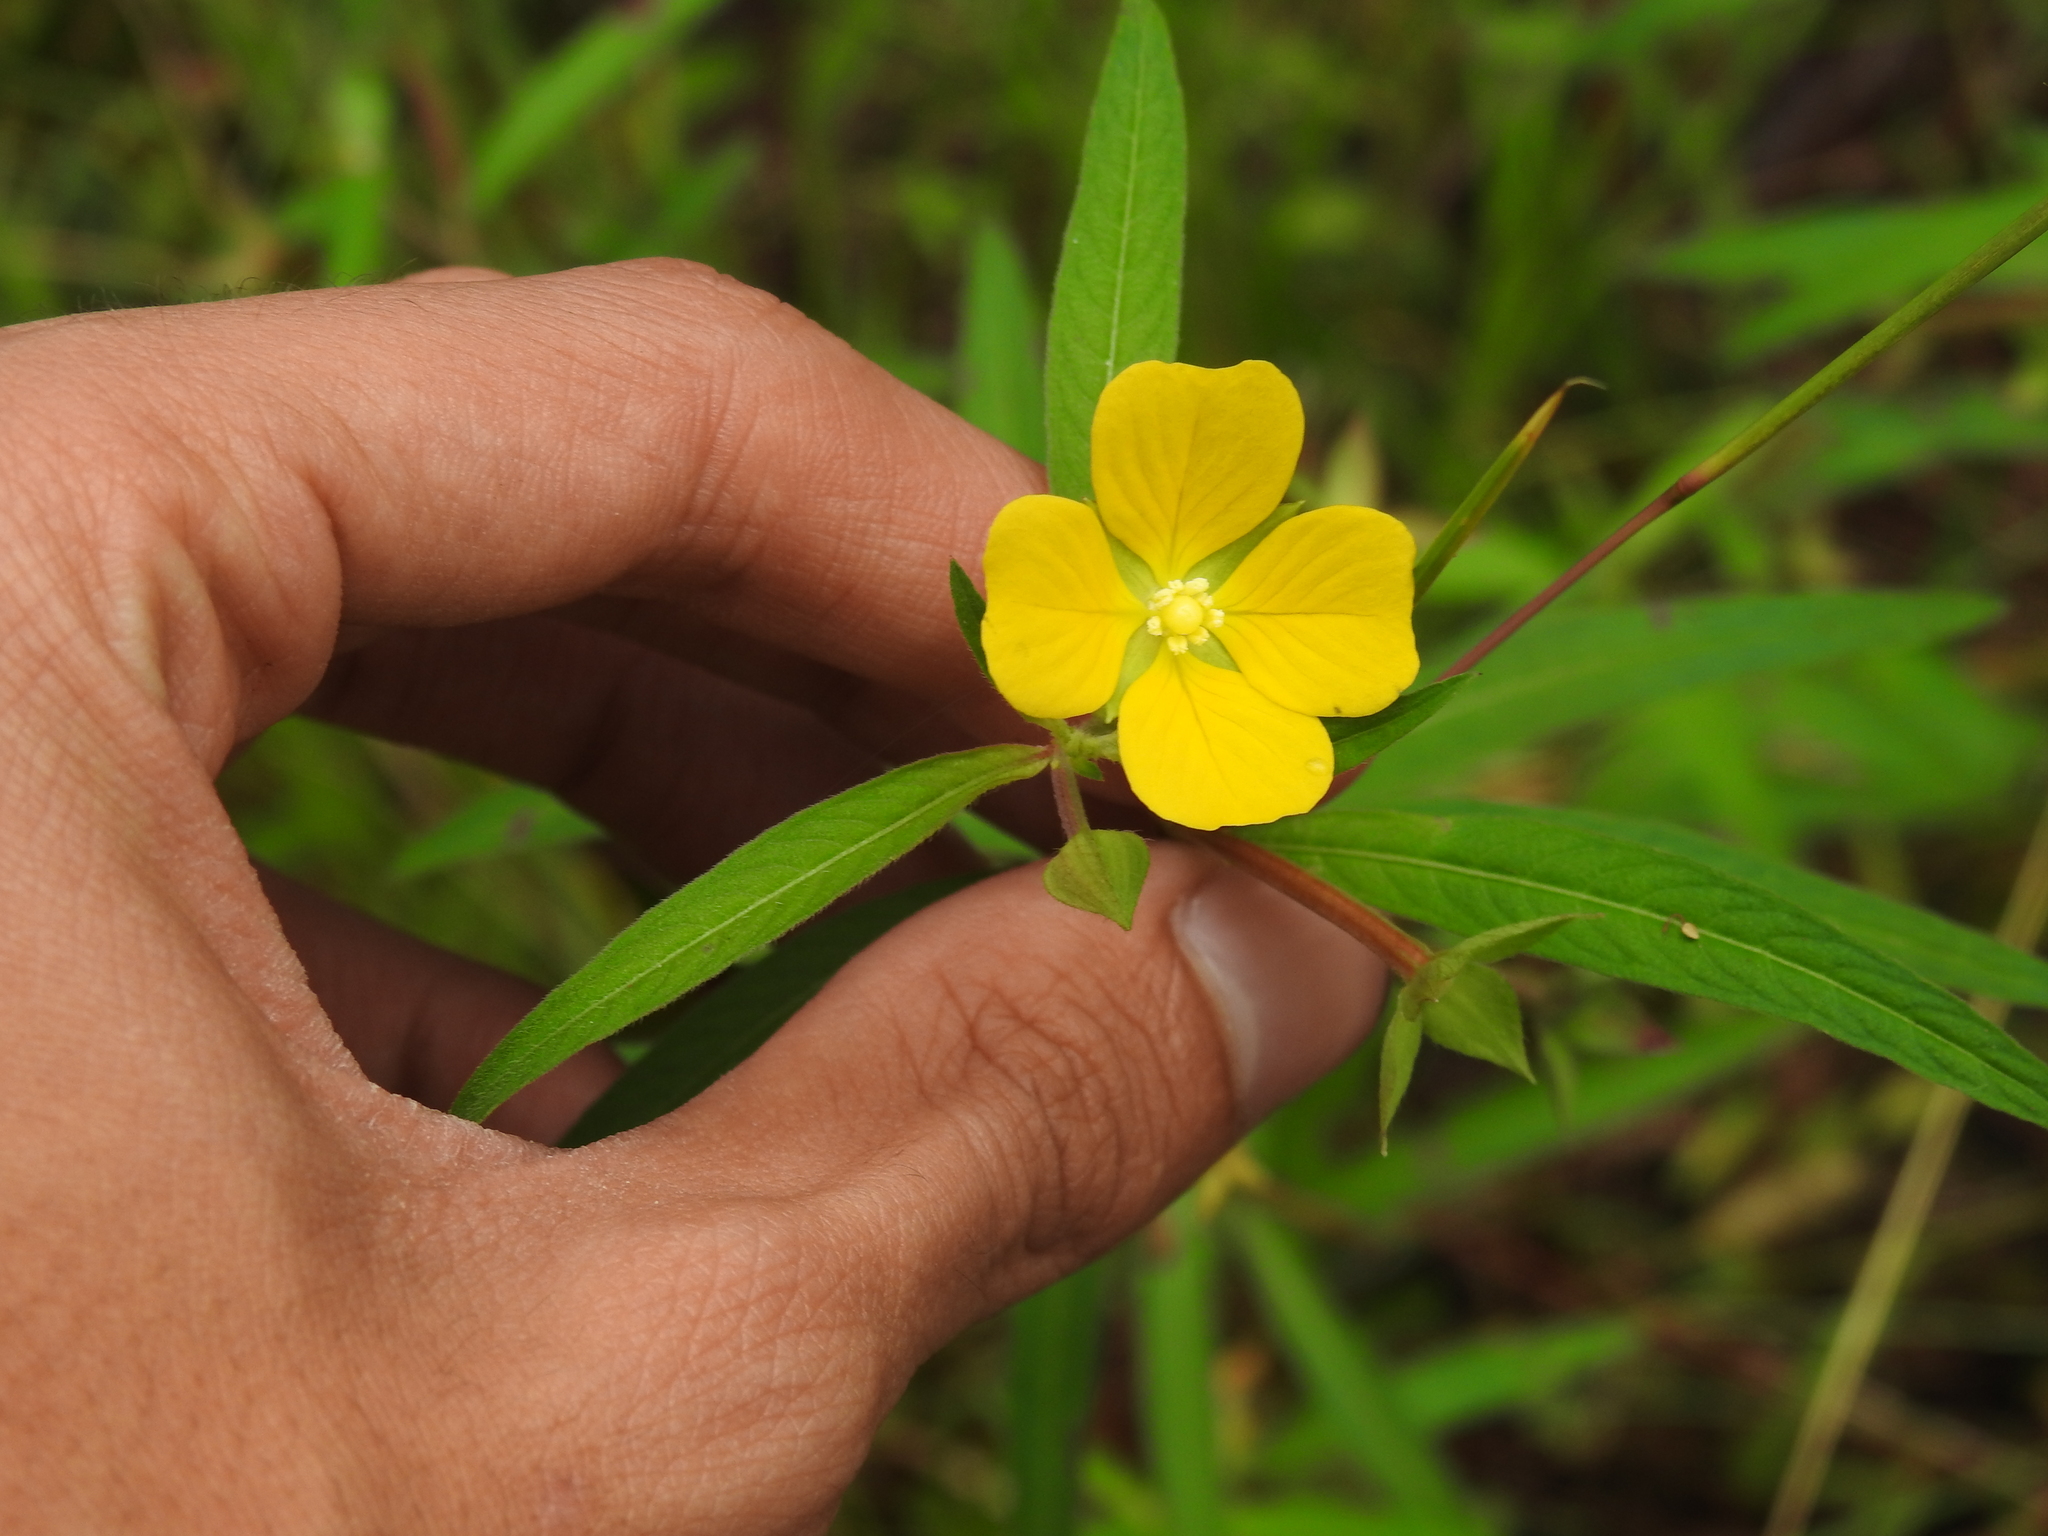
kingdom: Plantae
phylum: Tracheophyta
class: Magnoliopsida
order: Myrtales
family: Onagraceae
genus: Ludwigia
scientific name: Ludwigia octovalvis
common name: Water-primrose
